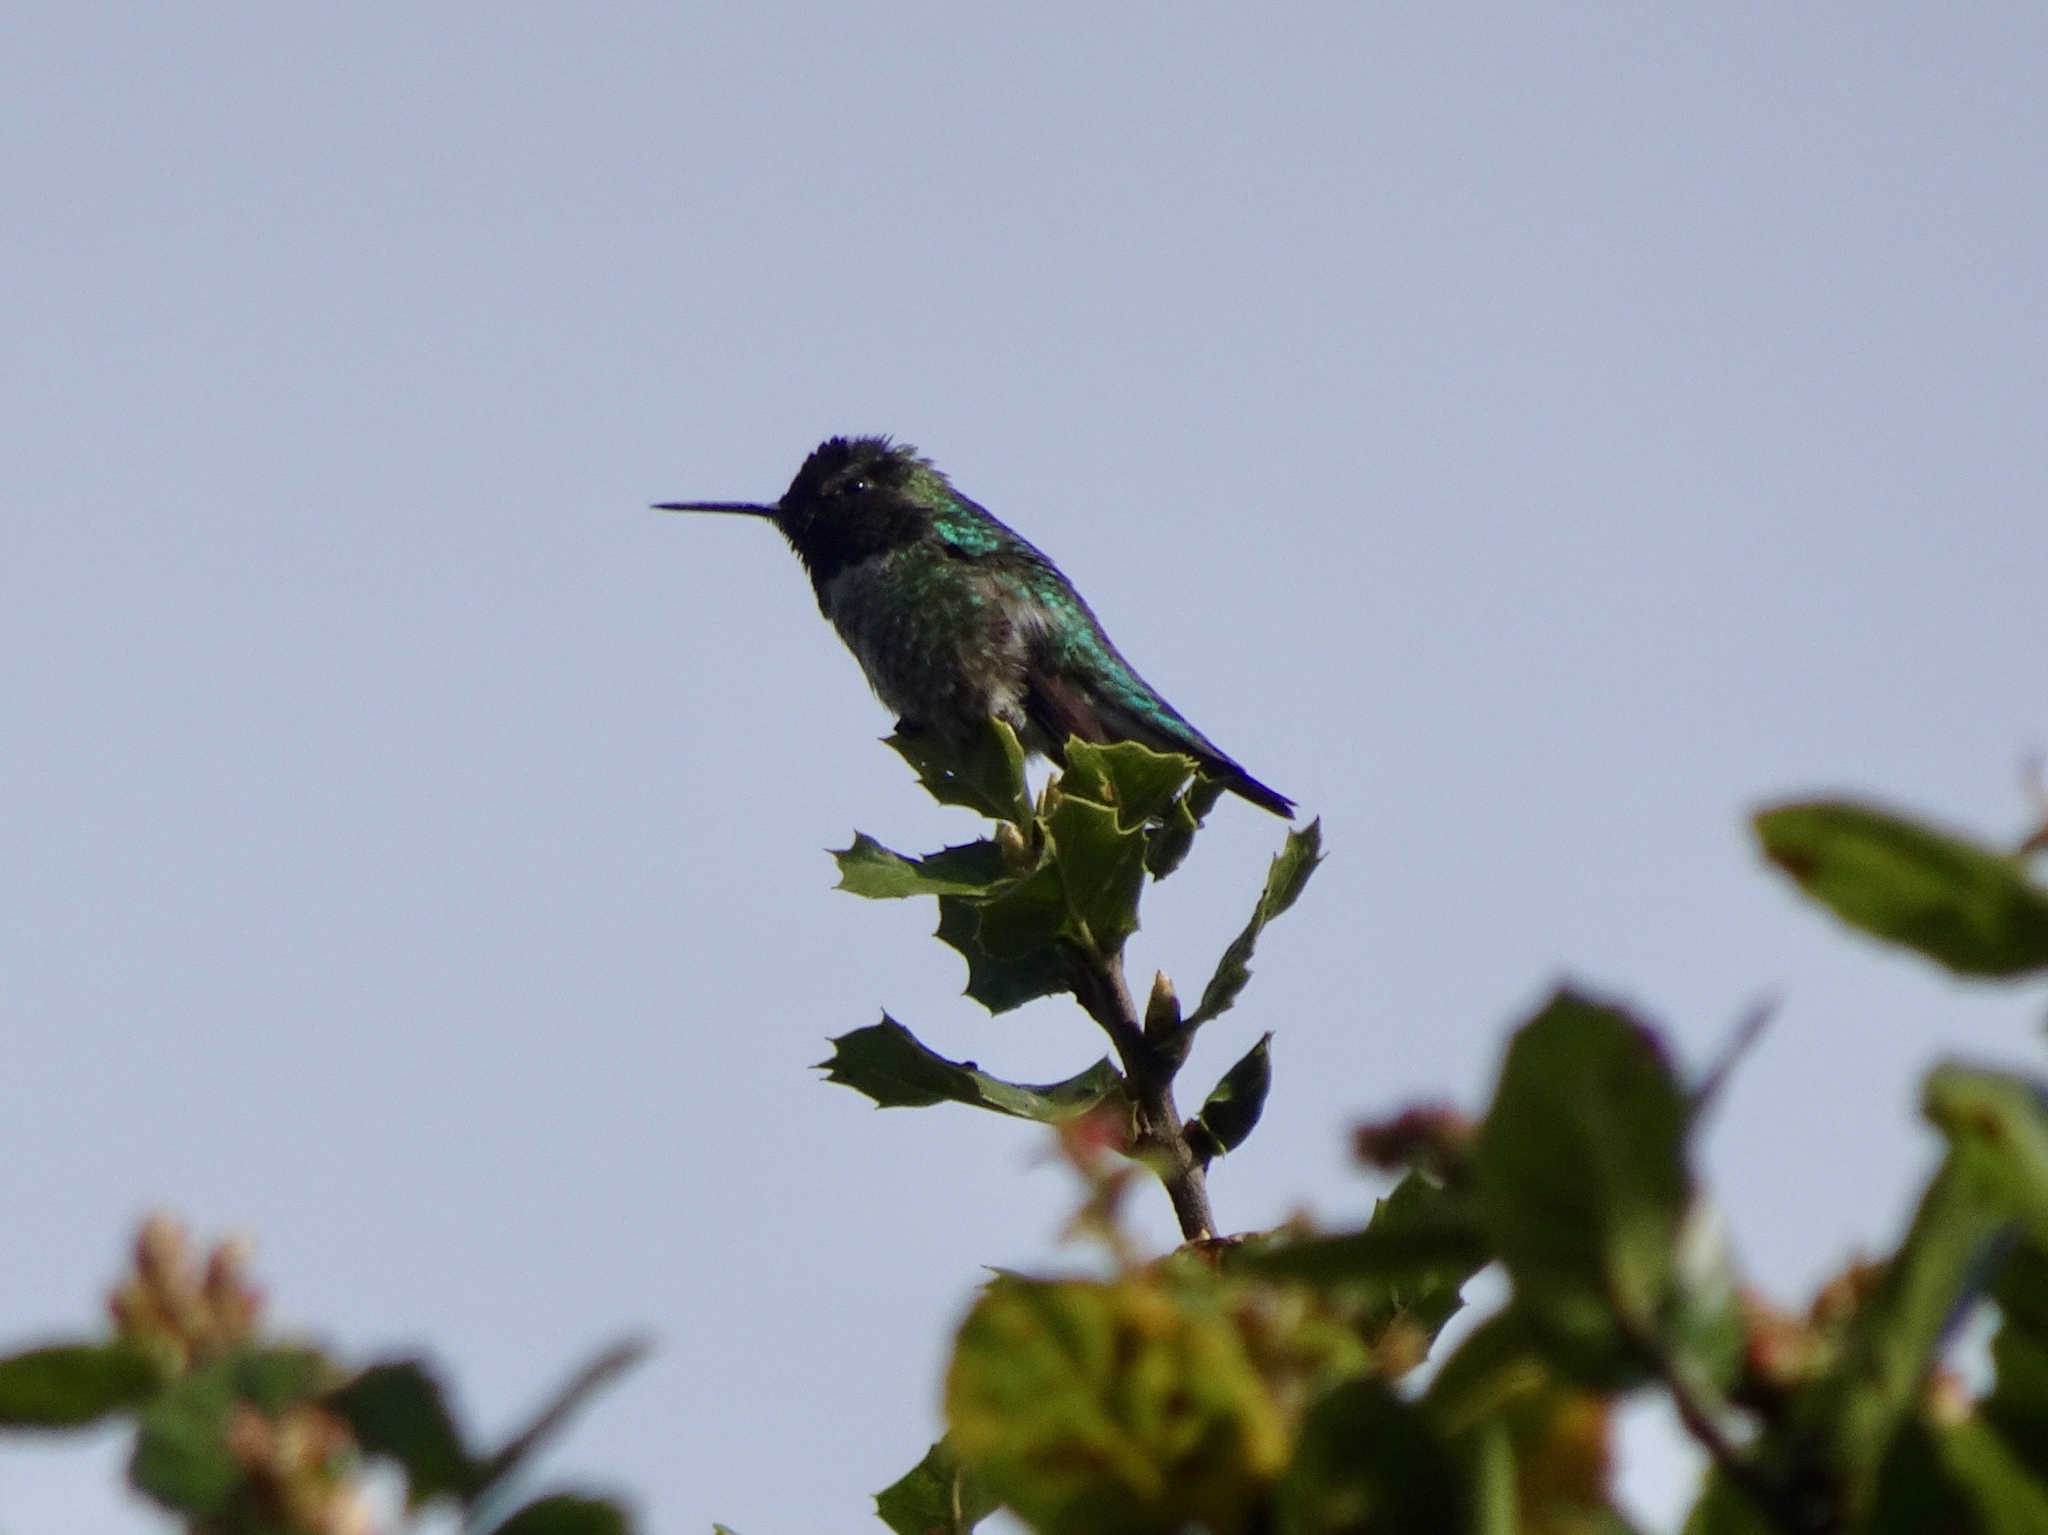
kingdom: Animalia
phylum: Chordata
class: Aves
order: Apodiformes
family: Trochilidae
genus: Calypte
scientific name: Calypte anna
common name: Anna's hummingbird
